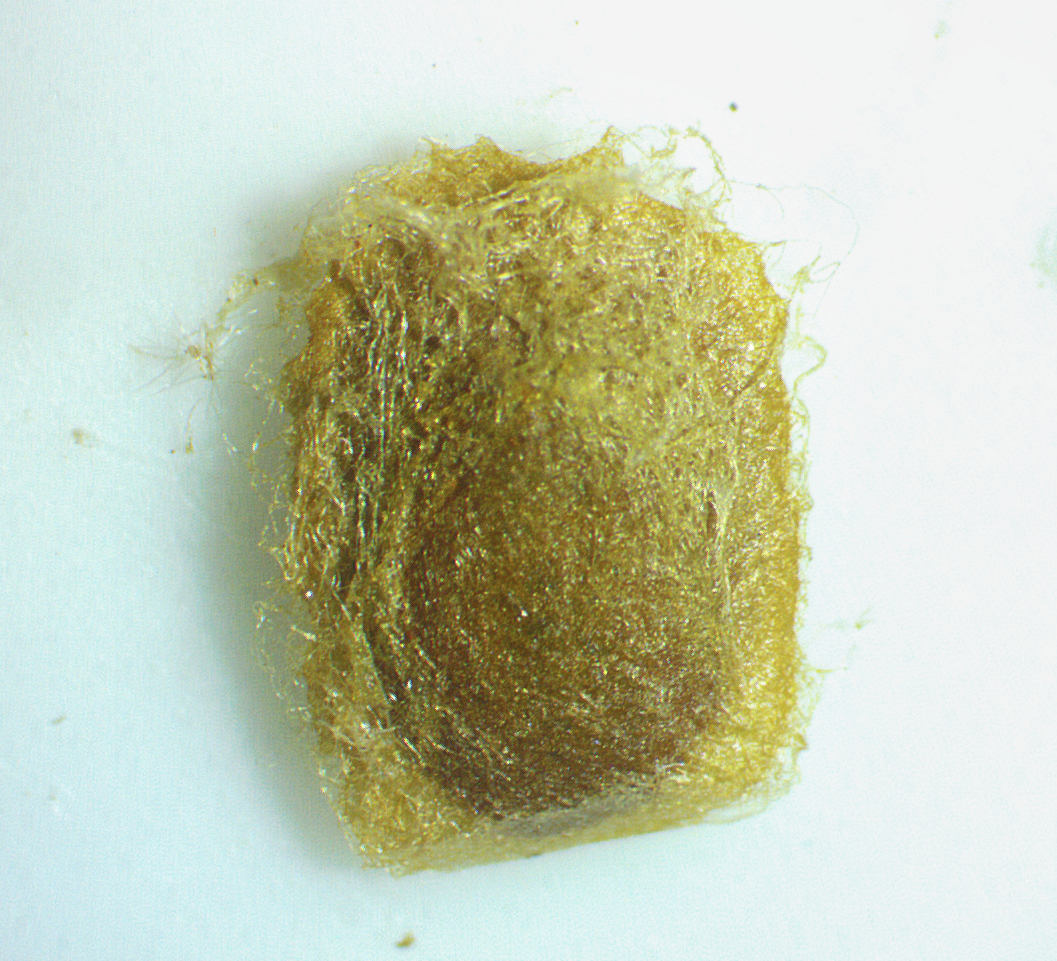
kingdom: Animalia
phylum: Arthropoda
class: Insecta
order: Lepidoptera
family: Nepticulidae
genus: Ectoedemia
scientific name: Ectoedemia platanella
